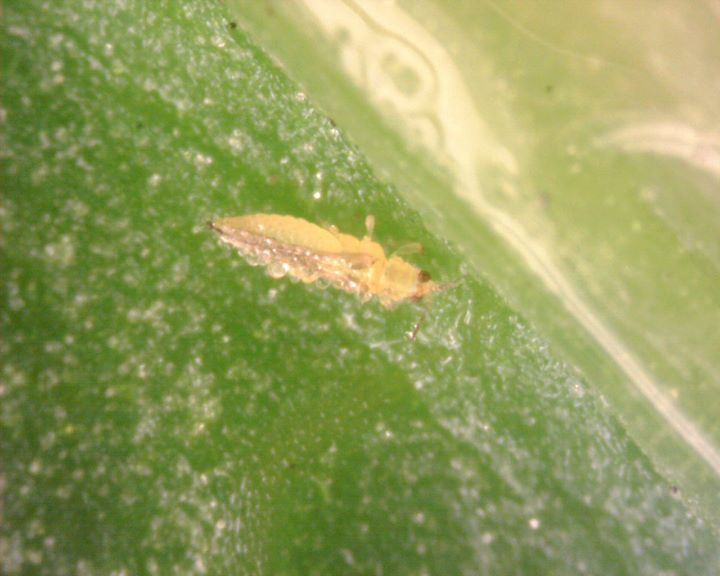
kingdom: Animalia
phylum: Arthropoda
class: Insecta
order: Thysanoptera
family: Thripidae
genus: Scirtothrips
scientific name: Scirtothrips dorsalis
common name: Thrips
